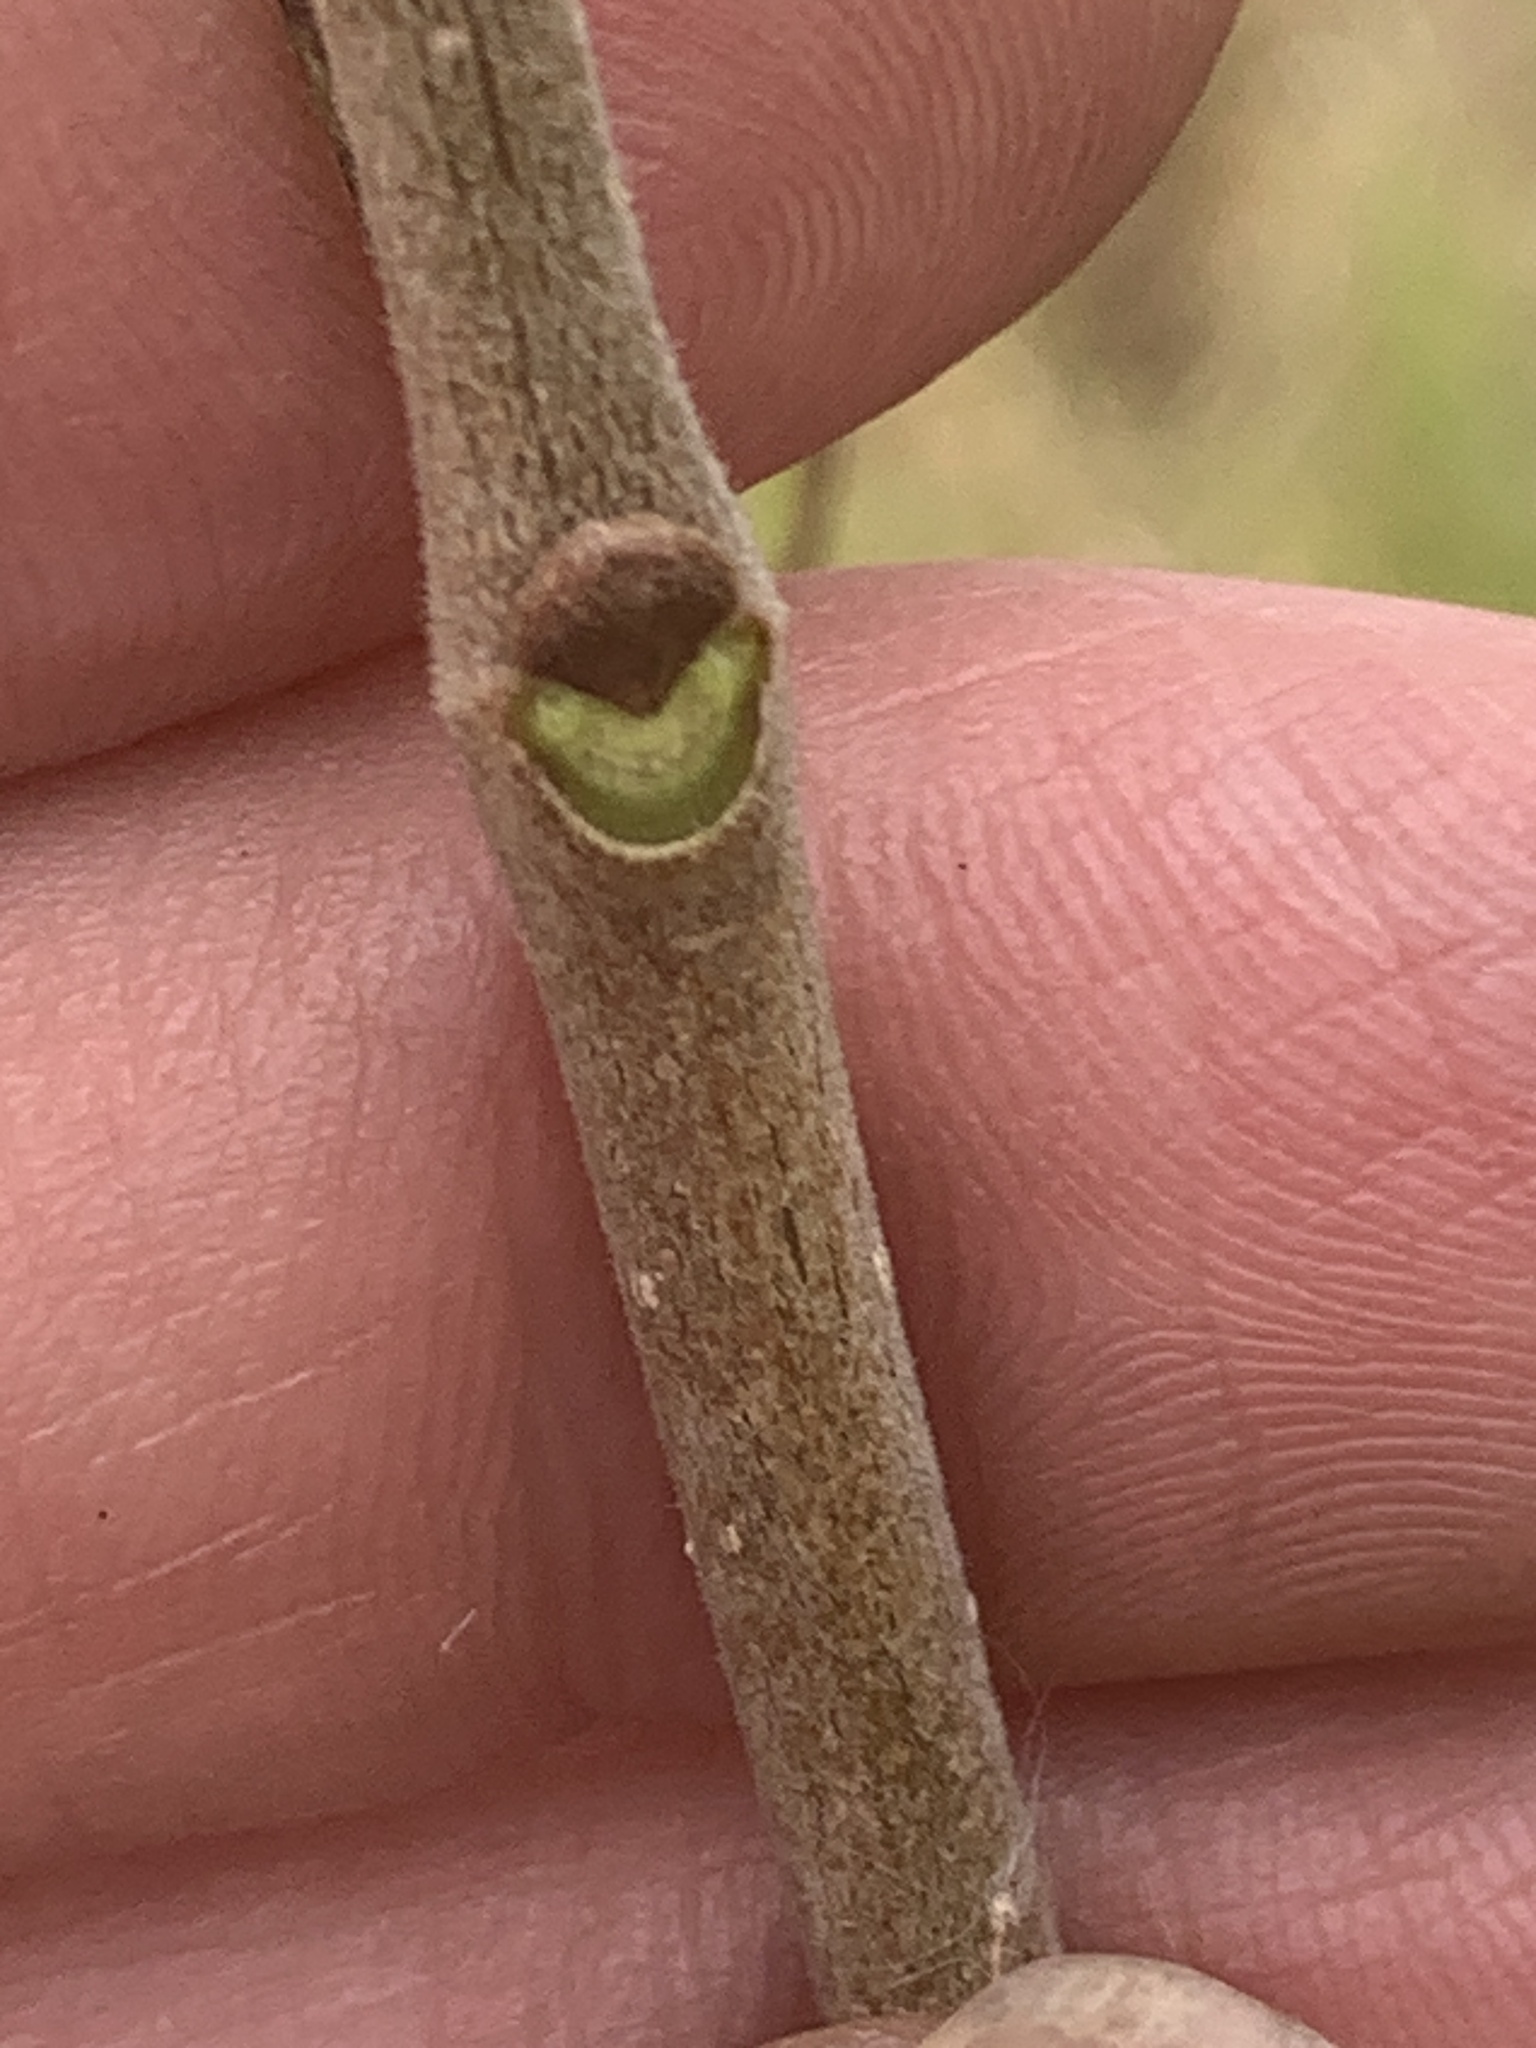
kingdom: Plantae
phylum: Tracheophyta
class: Magnoliopsida
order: Lamiales
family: Oleaceae
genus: Fraxinus
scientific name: Fraxinus pennsylvanica
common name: Green ash
